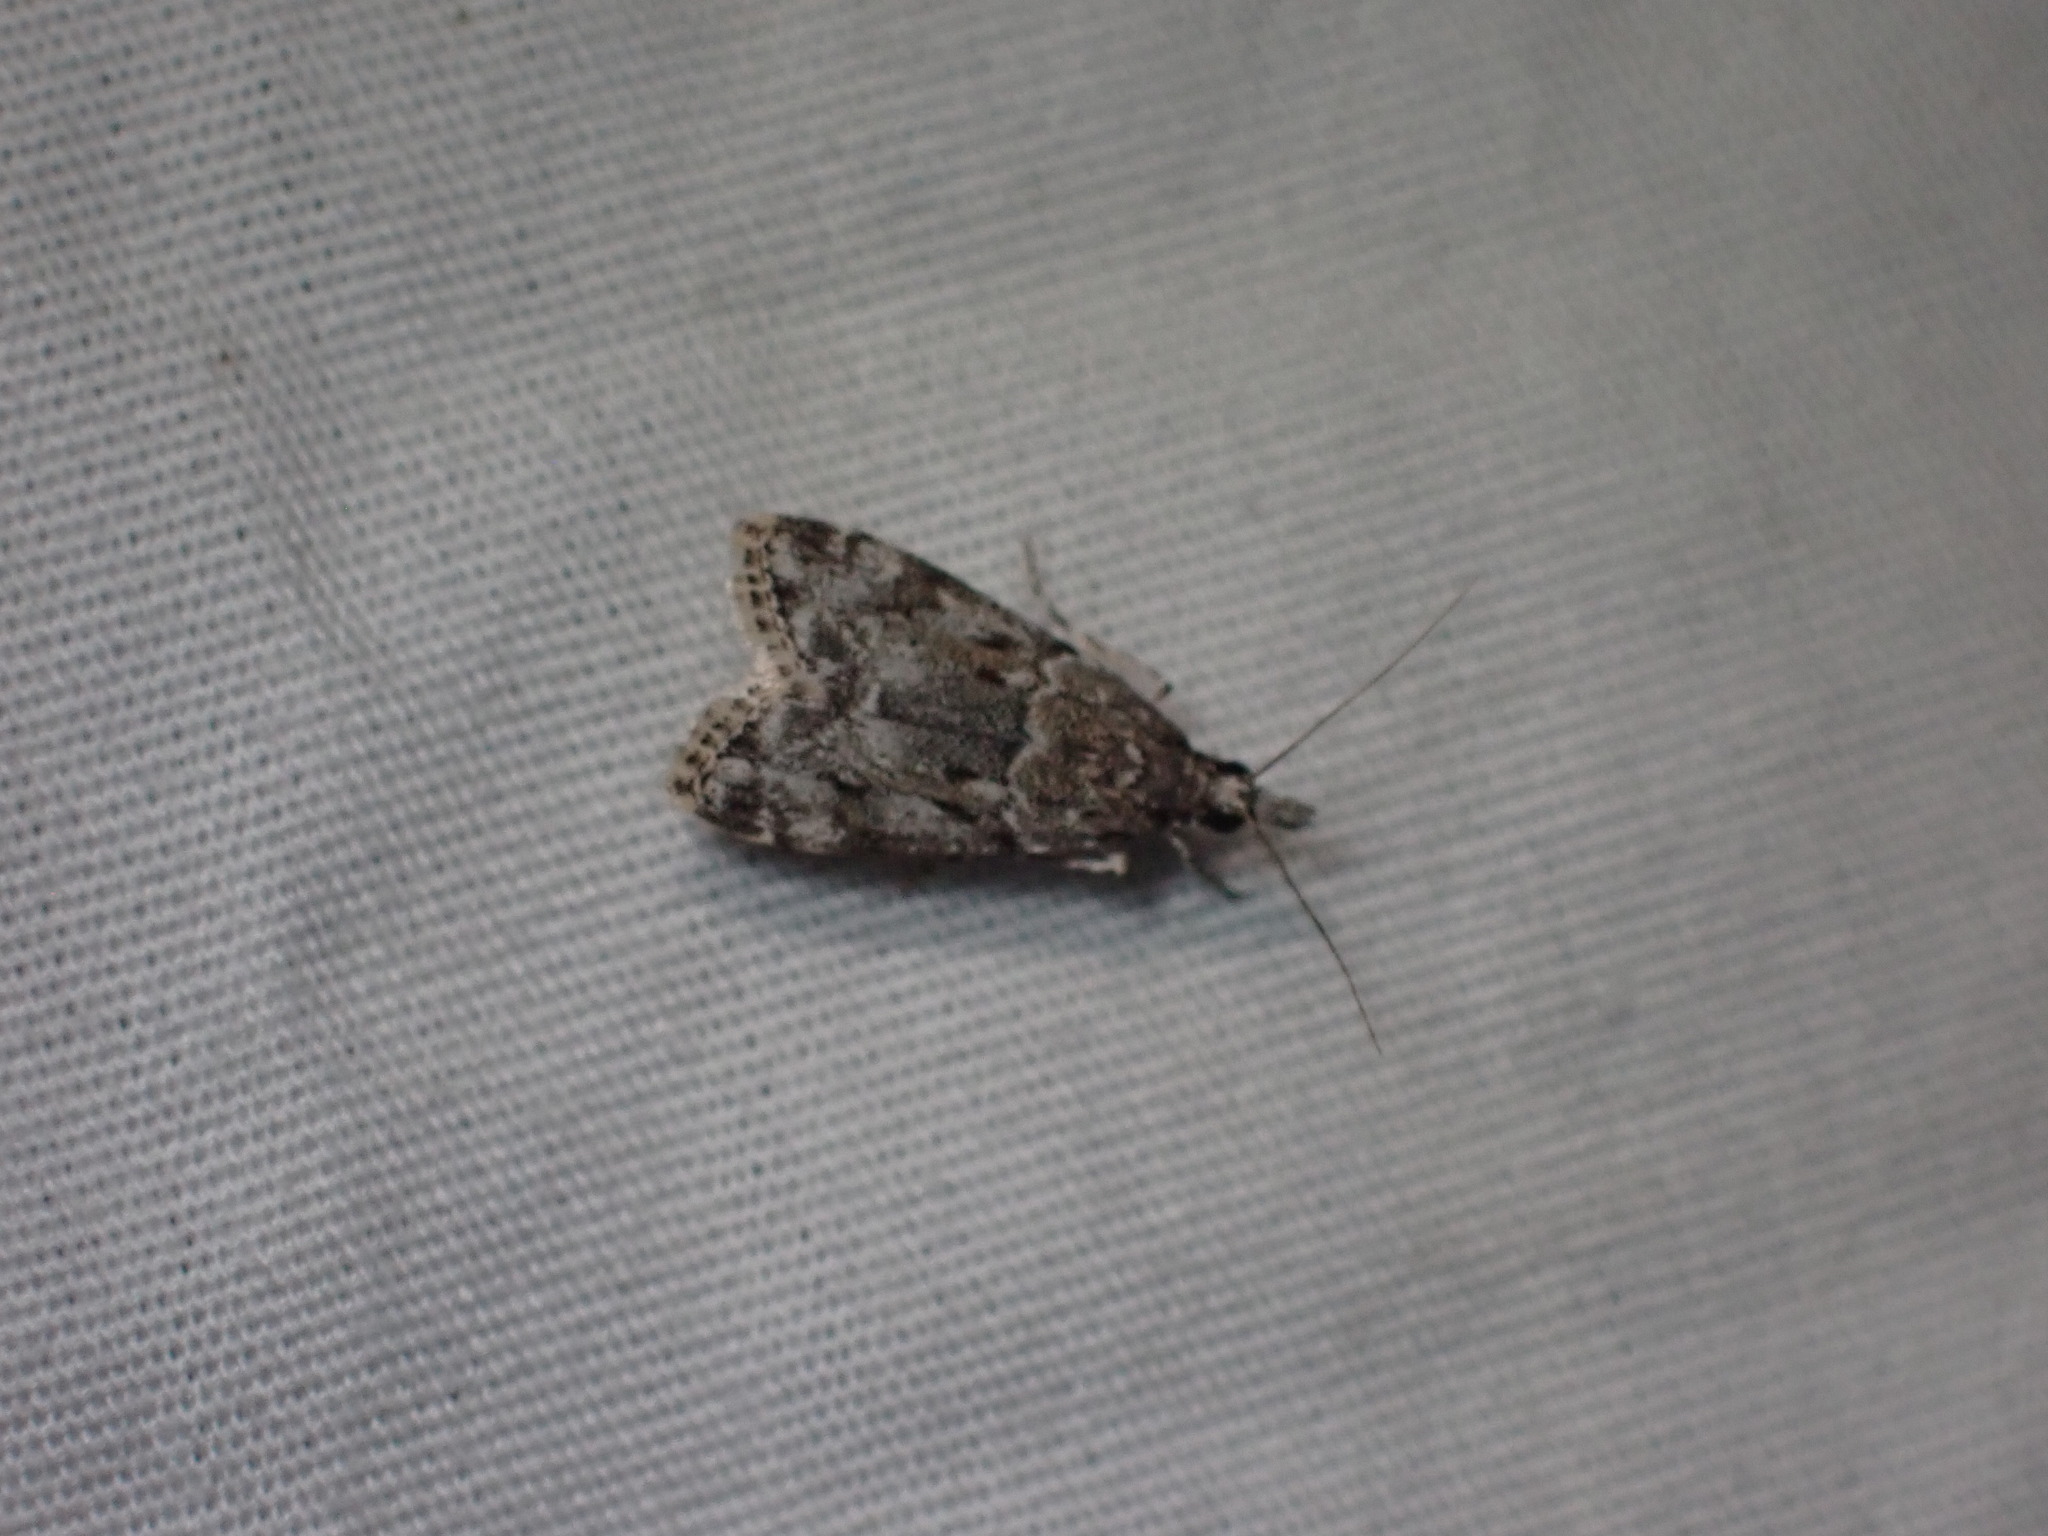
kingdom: Animalia
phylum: Arthropoda
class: Insecta
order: Lepidoptera
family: Crambidae
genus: Eudonia
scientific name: Eudonia heterosalis
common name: Mcdunnough's eudonia
